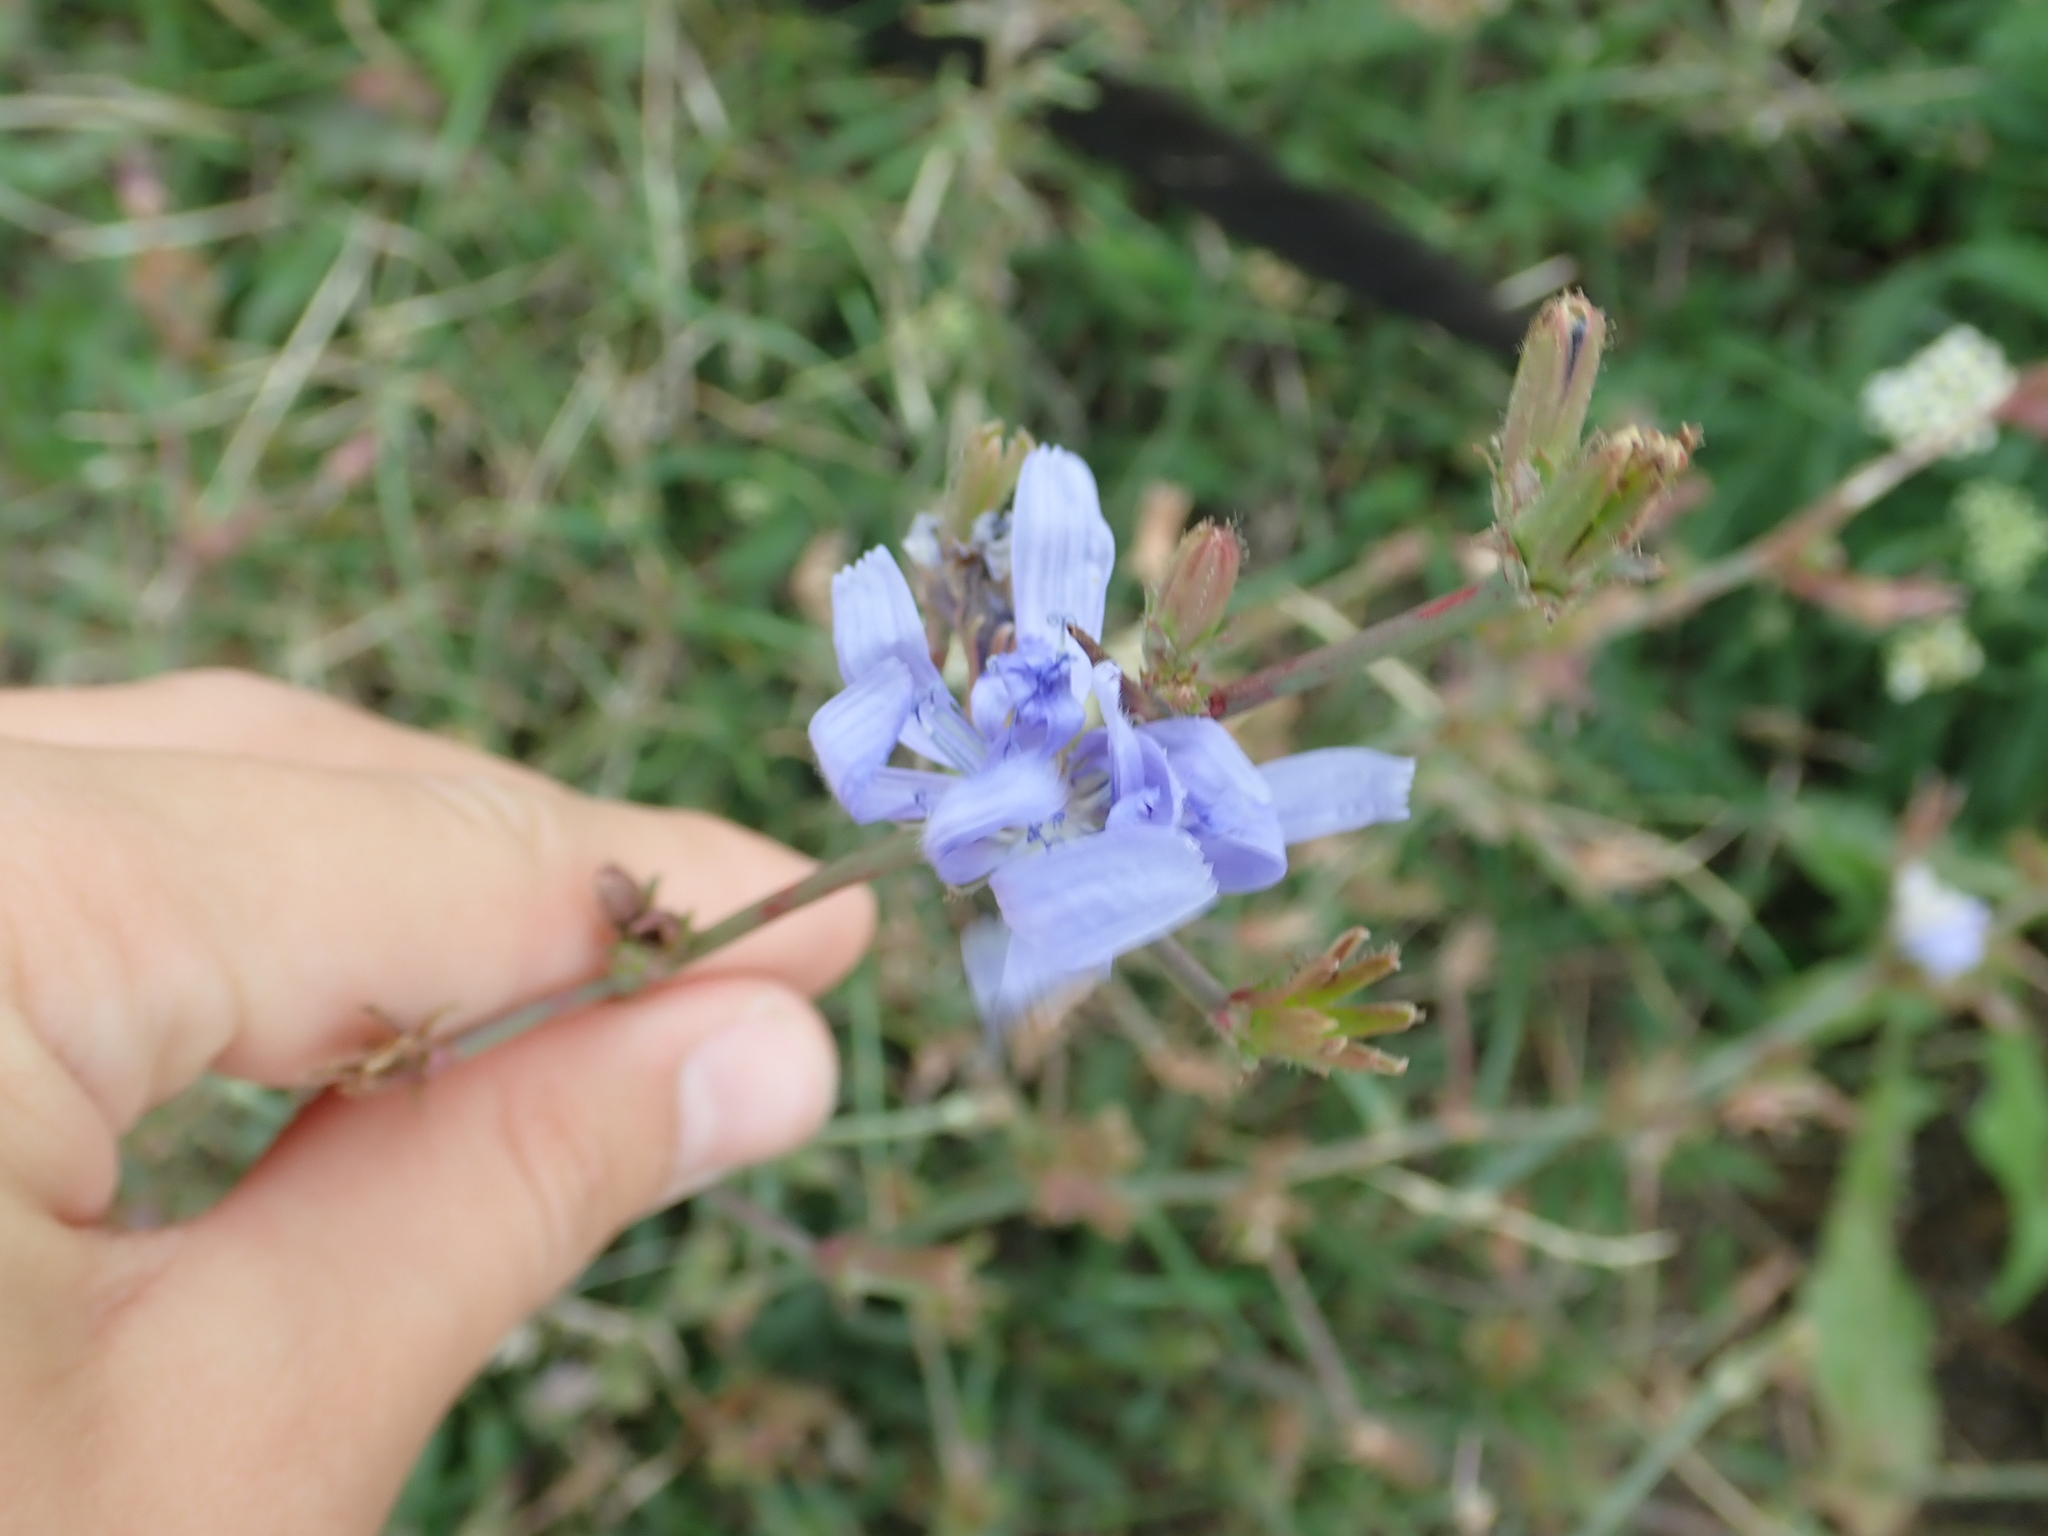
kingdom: Plantae
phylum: Tracheophyta
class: Magnoliopsida
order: Asterales
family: Asteraceae
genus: Cichorium
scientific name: Cichorium intybus
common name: Chicory
